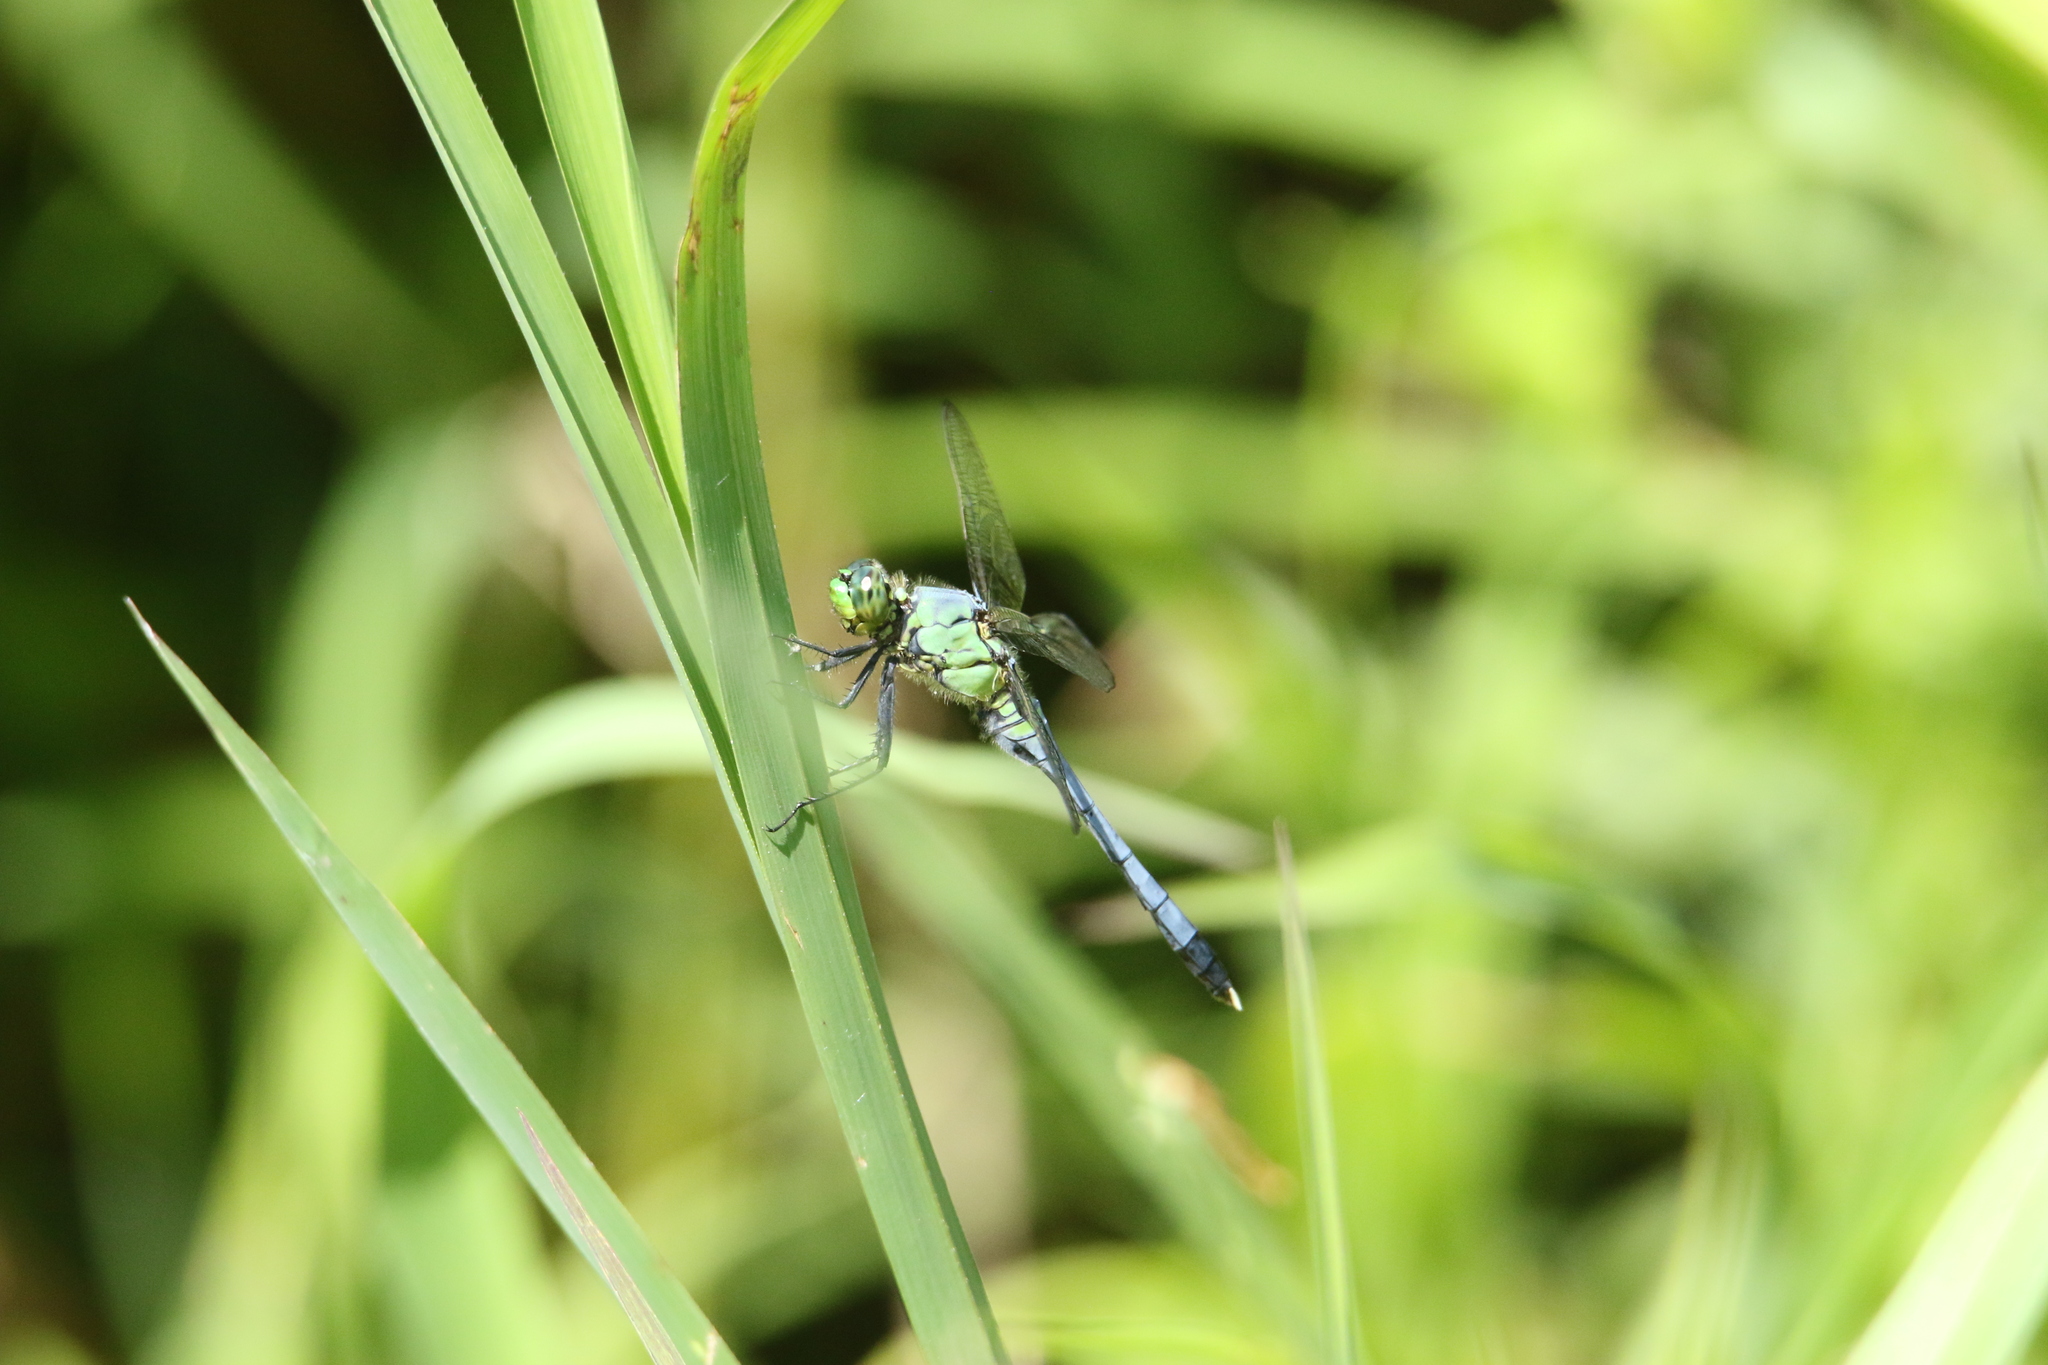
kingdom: Animalia
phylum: Arthropoda
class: Insecta
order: Odonata
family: Libellulidae
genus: Erythemis
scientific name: Erythemis simplicicollis
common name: Eastern pondhawk
